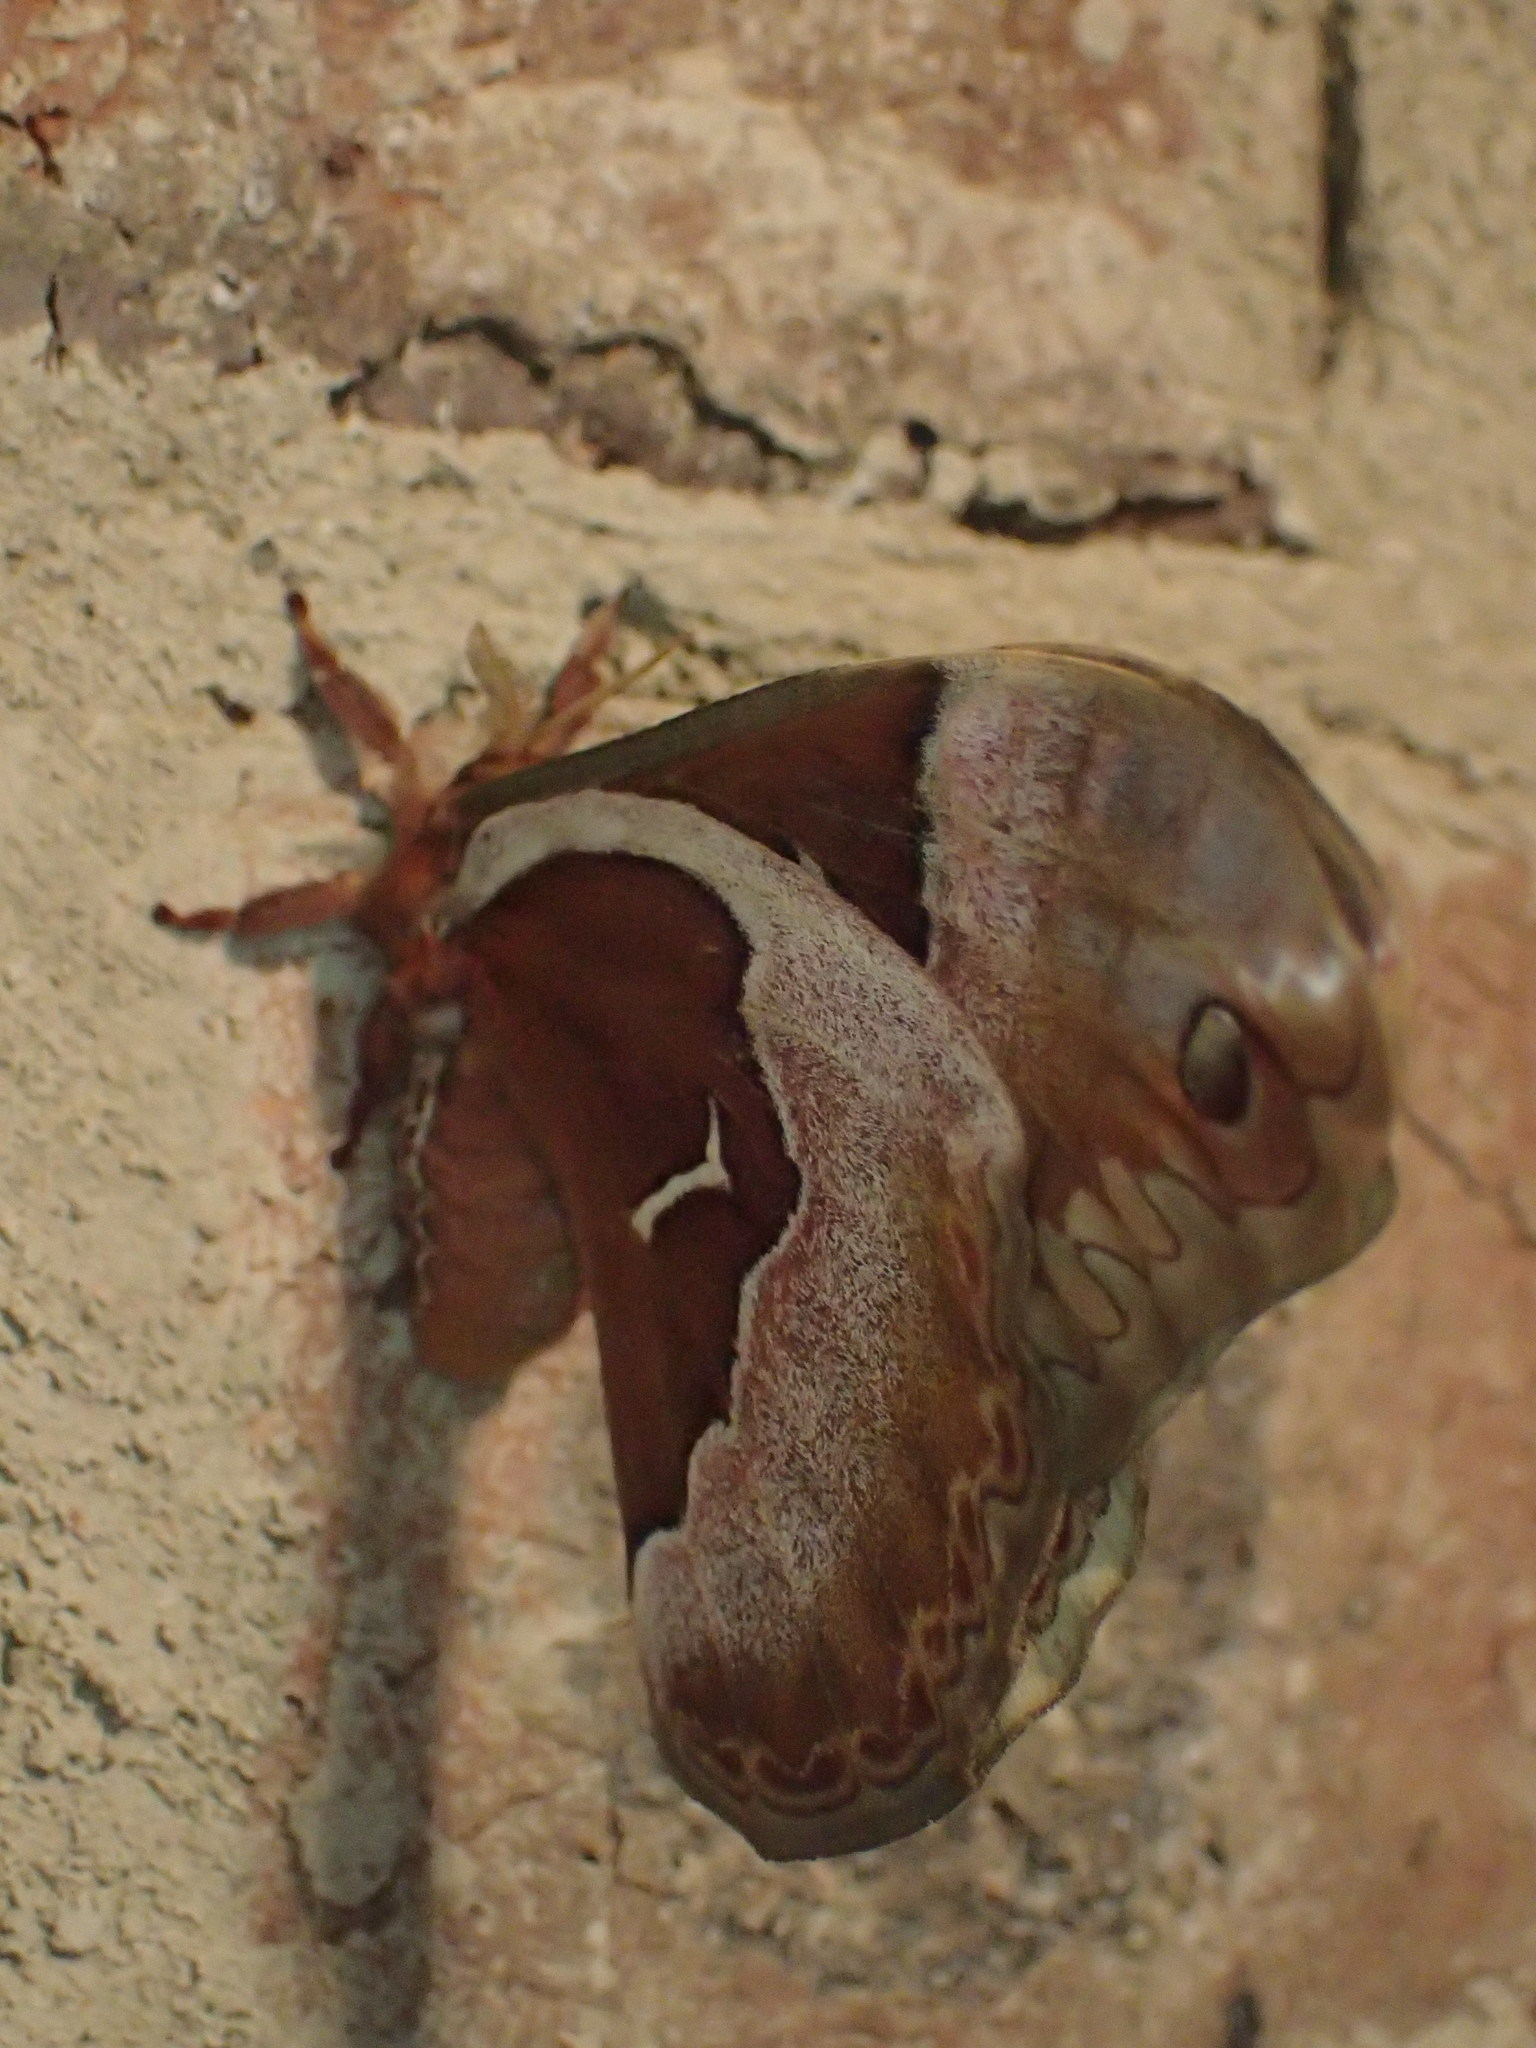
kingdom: Animalia
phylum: Arthropoda
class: Insecta
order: Lepidoptera
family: Saturniidae
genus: Callosamia
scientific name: Callosamia angulifera
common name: Tulip tree silkmoth
